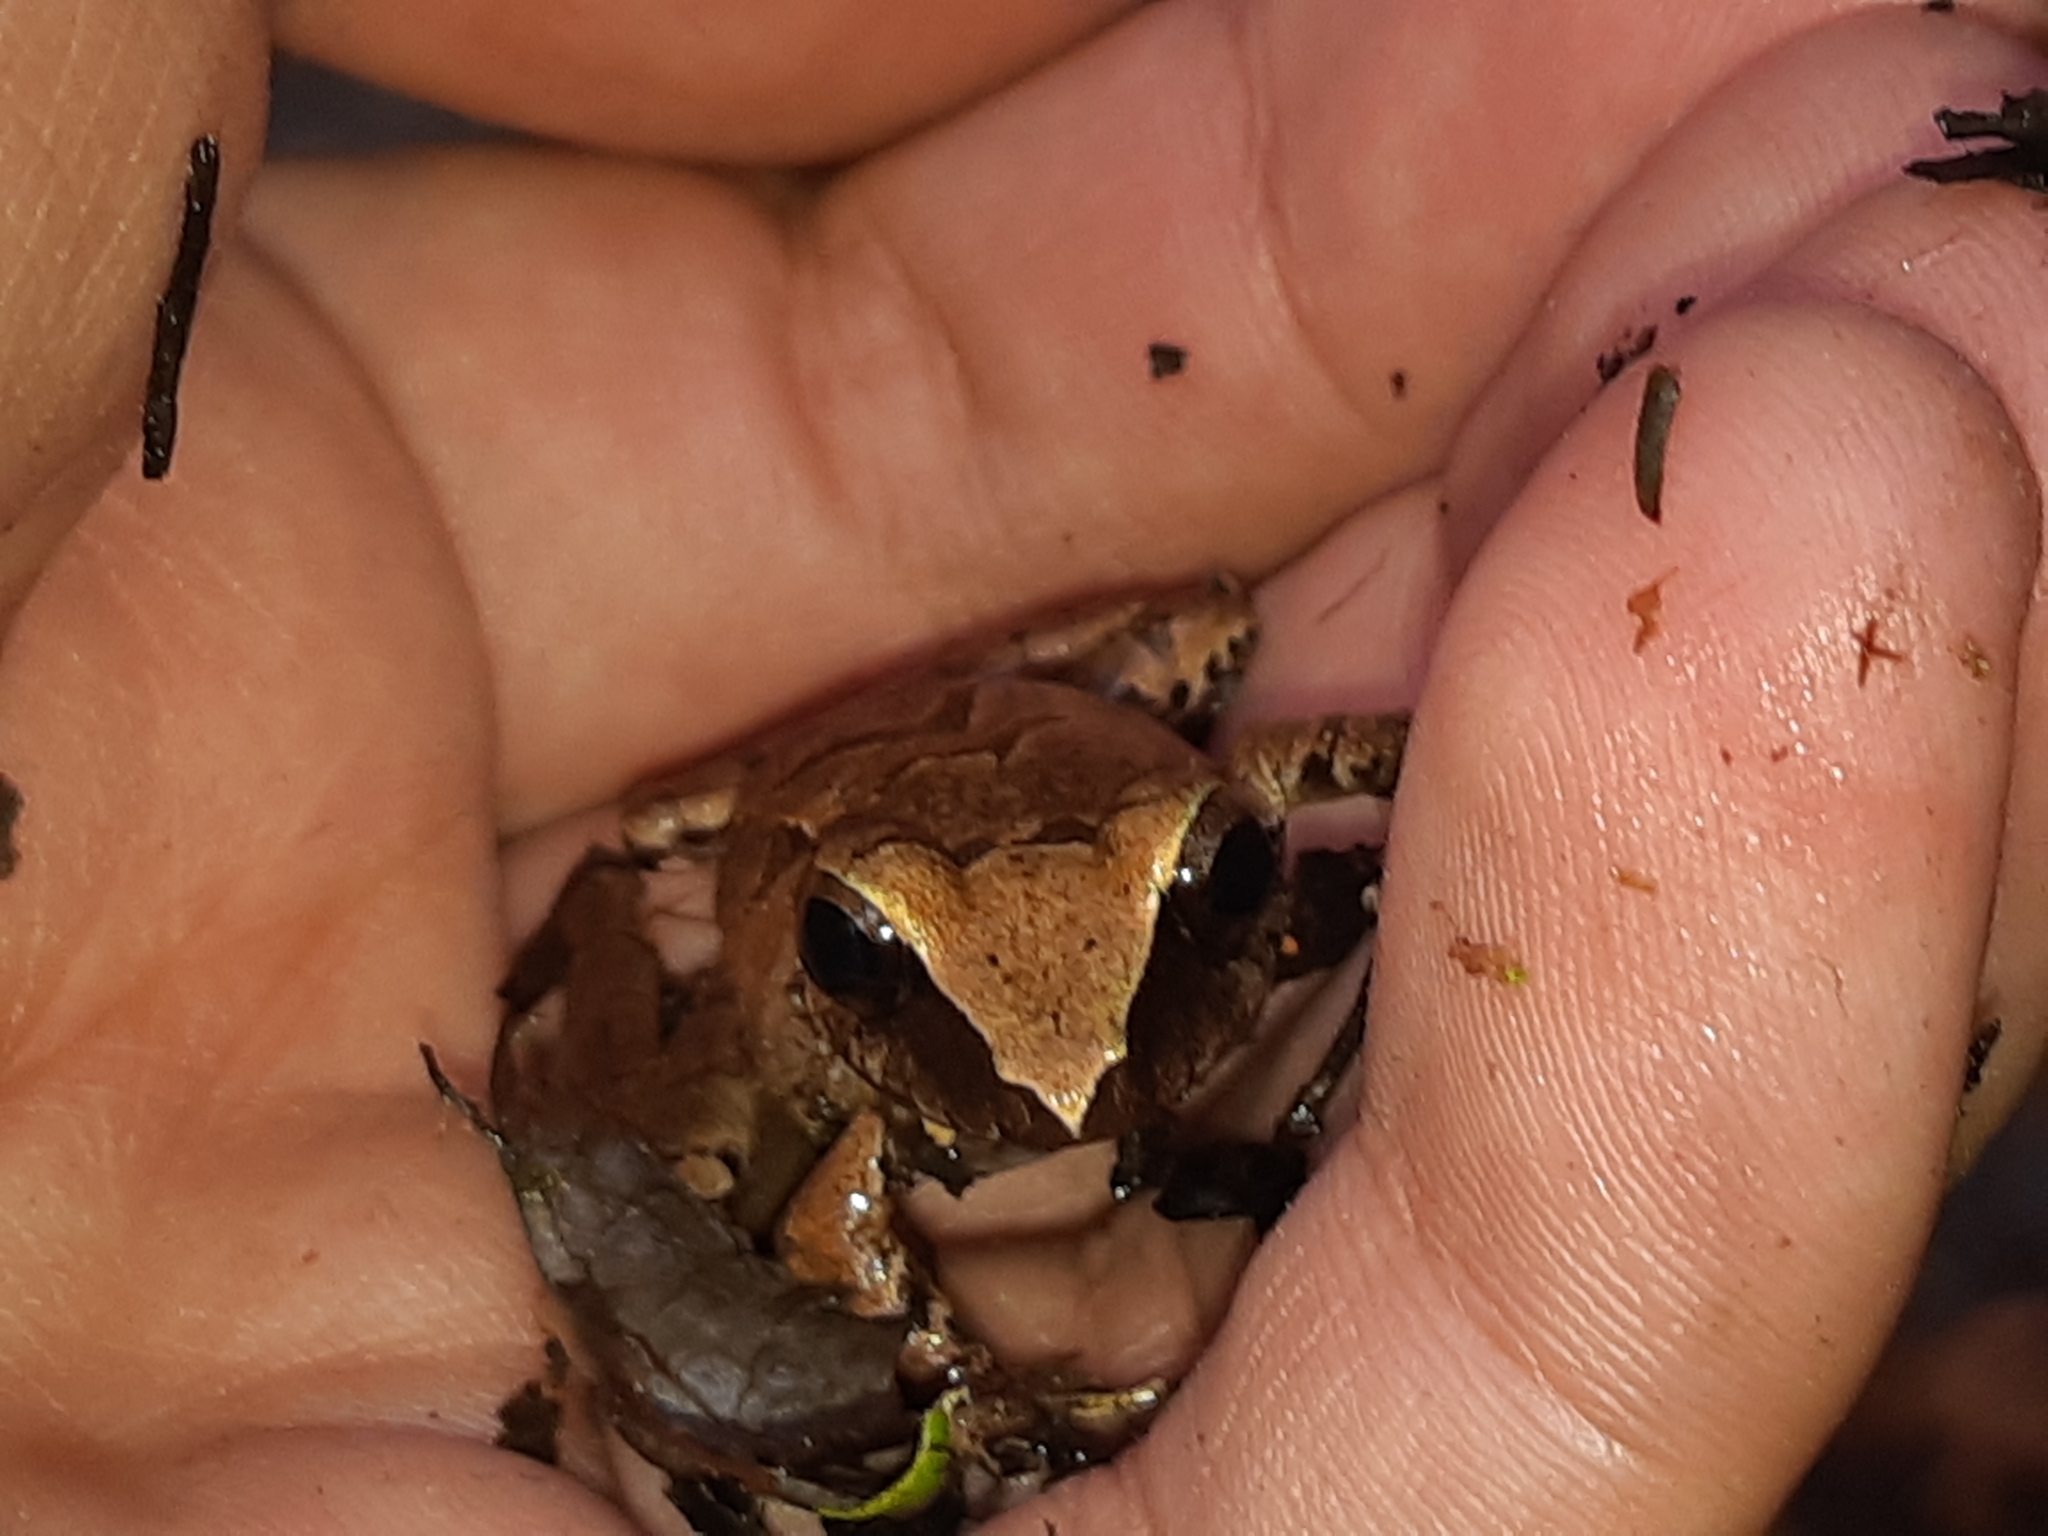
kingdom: Animalia
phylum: Chordata
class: Amphibia
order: Anura
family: Craugastoridae
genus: Pristimantis
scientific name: Pristimantis achatinus
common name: Cachabi robber frog
